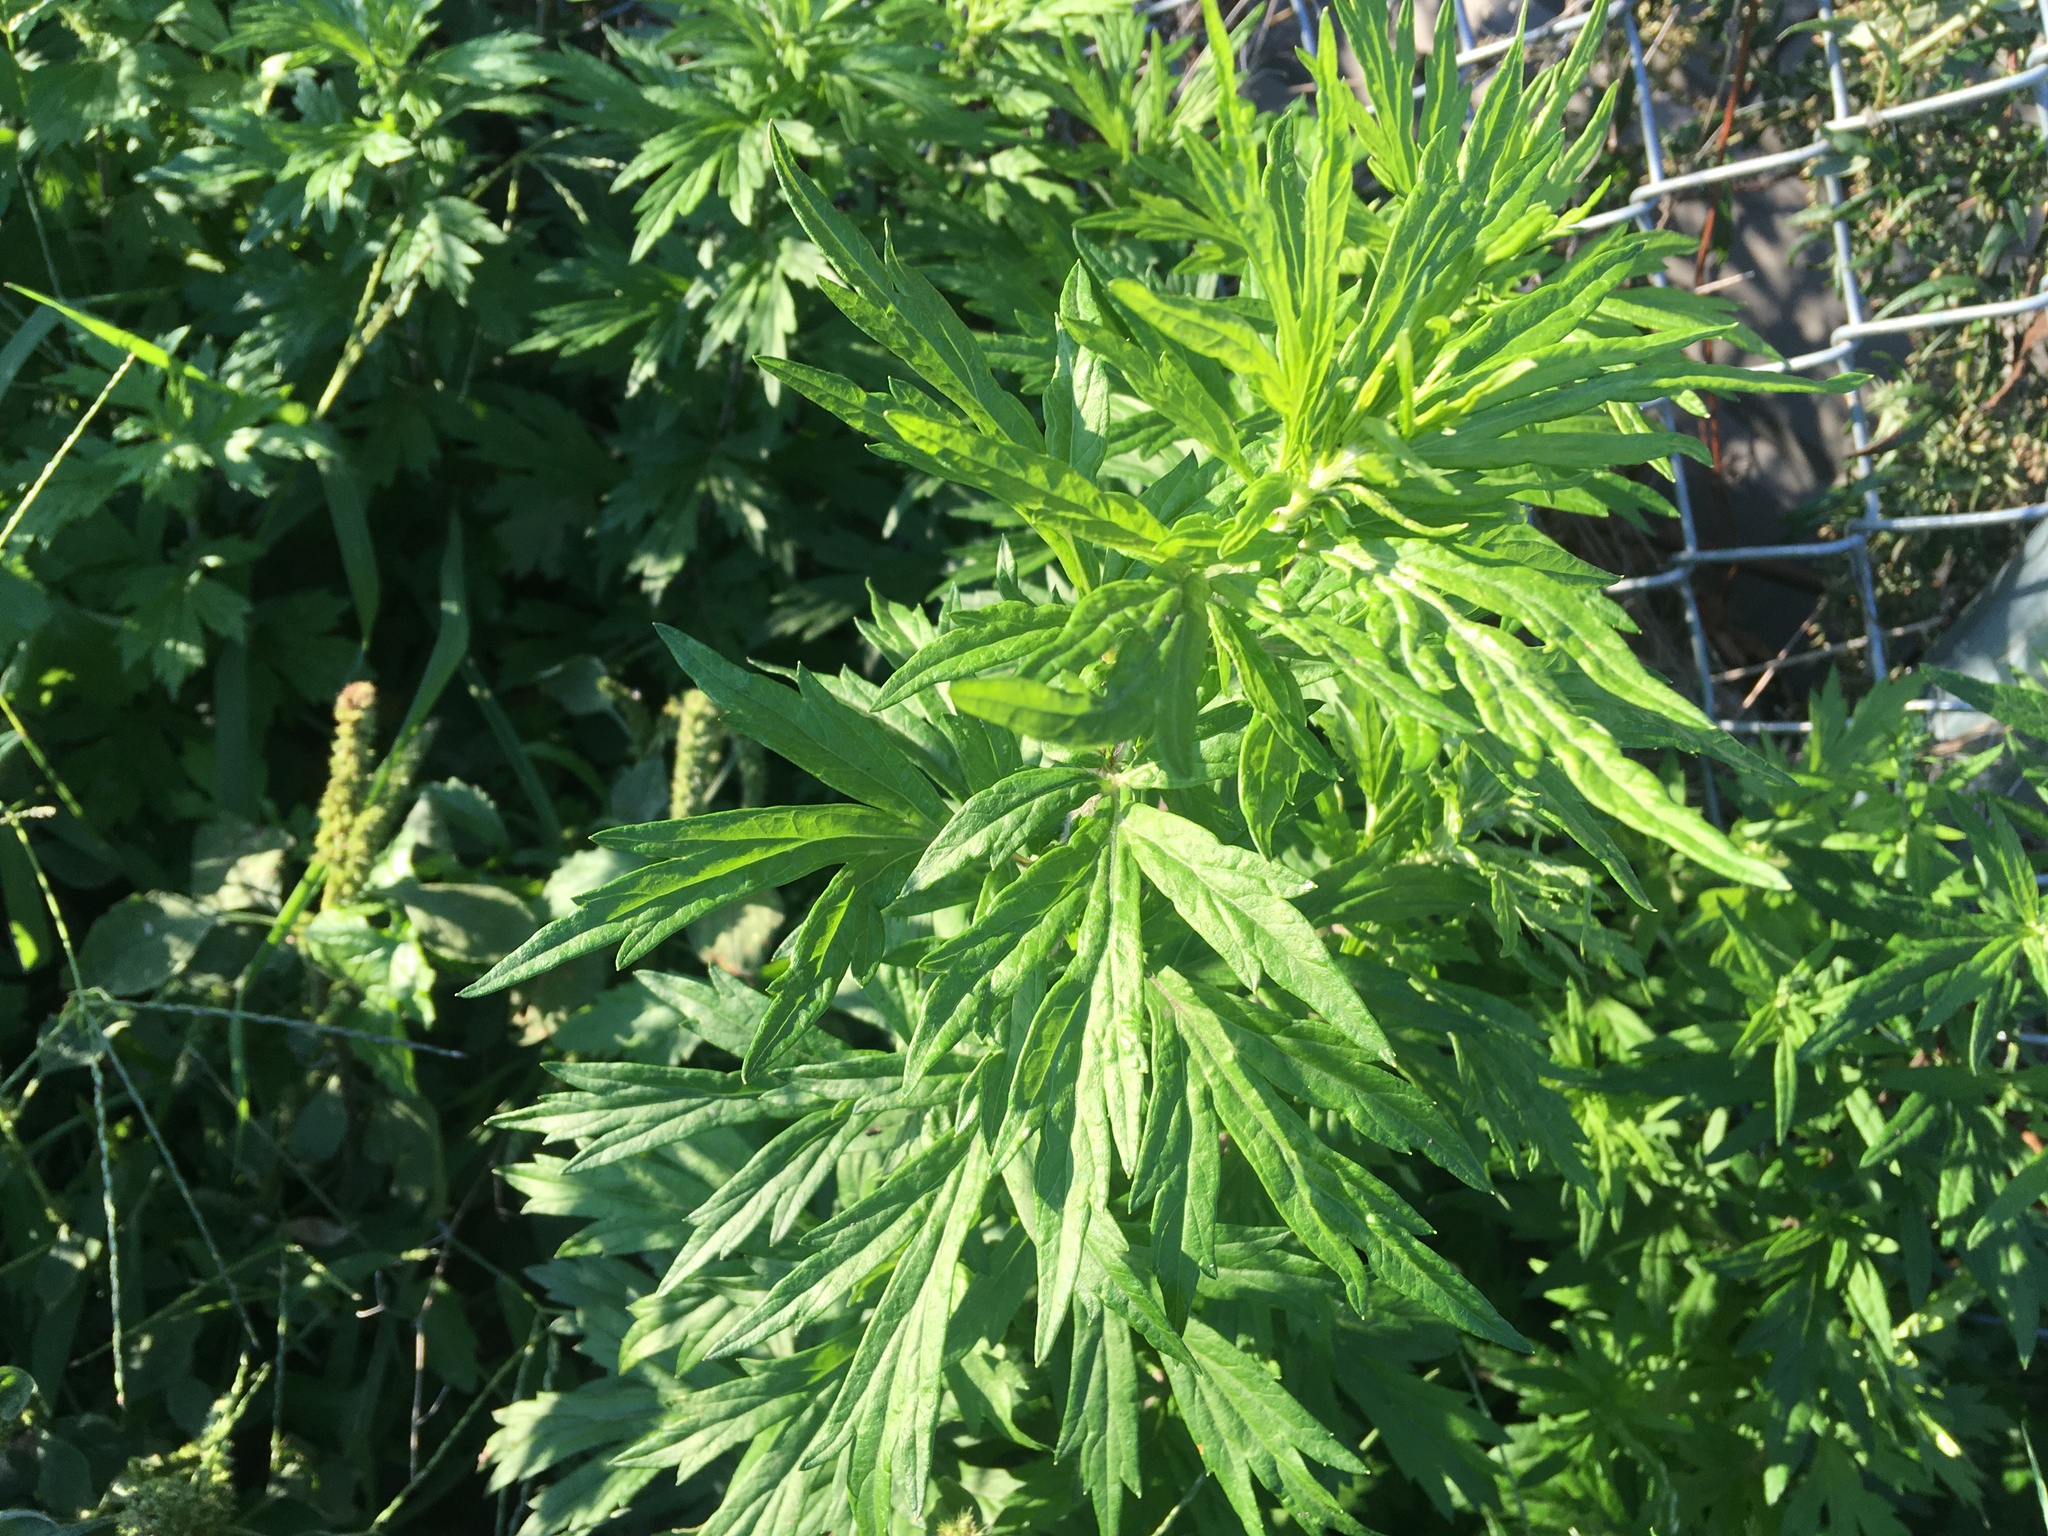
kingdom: Plantae
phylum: Tracheophyta
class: Magnoliopsida
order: Asterales
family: Asteraceae
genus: Artemisia
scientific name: Artemisia vulgaris
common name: Mugwort
